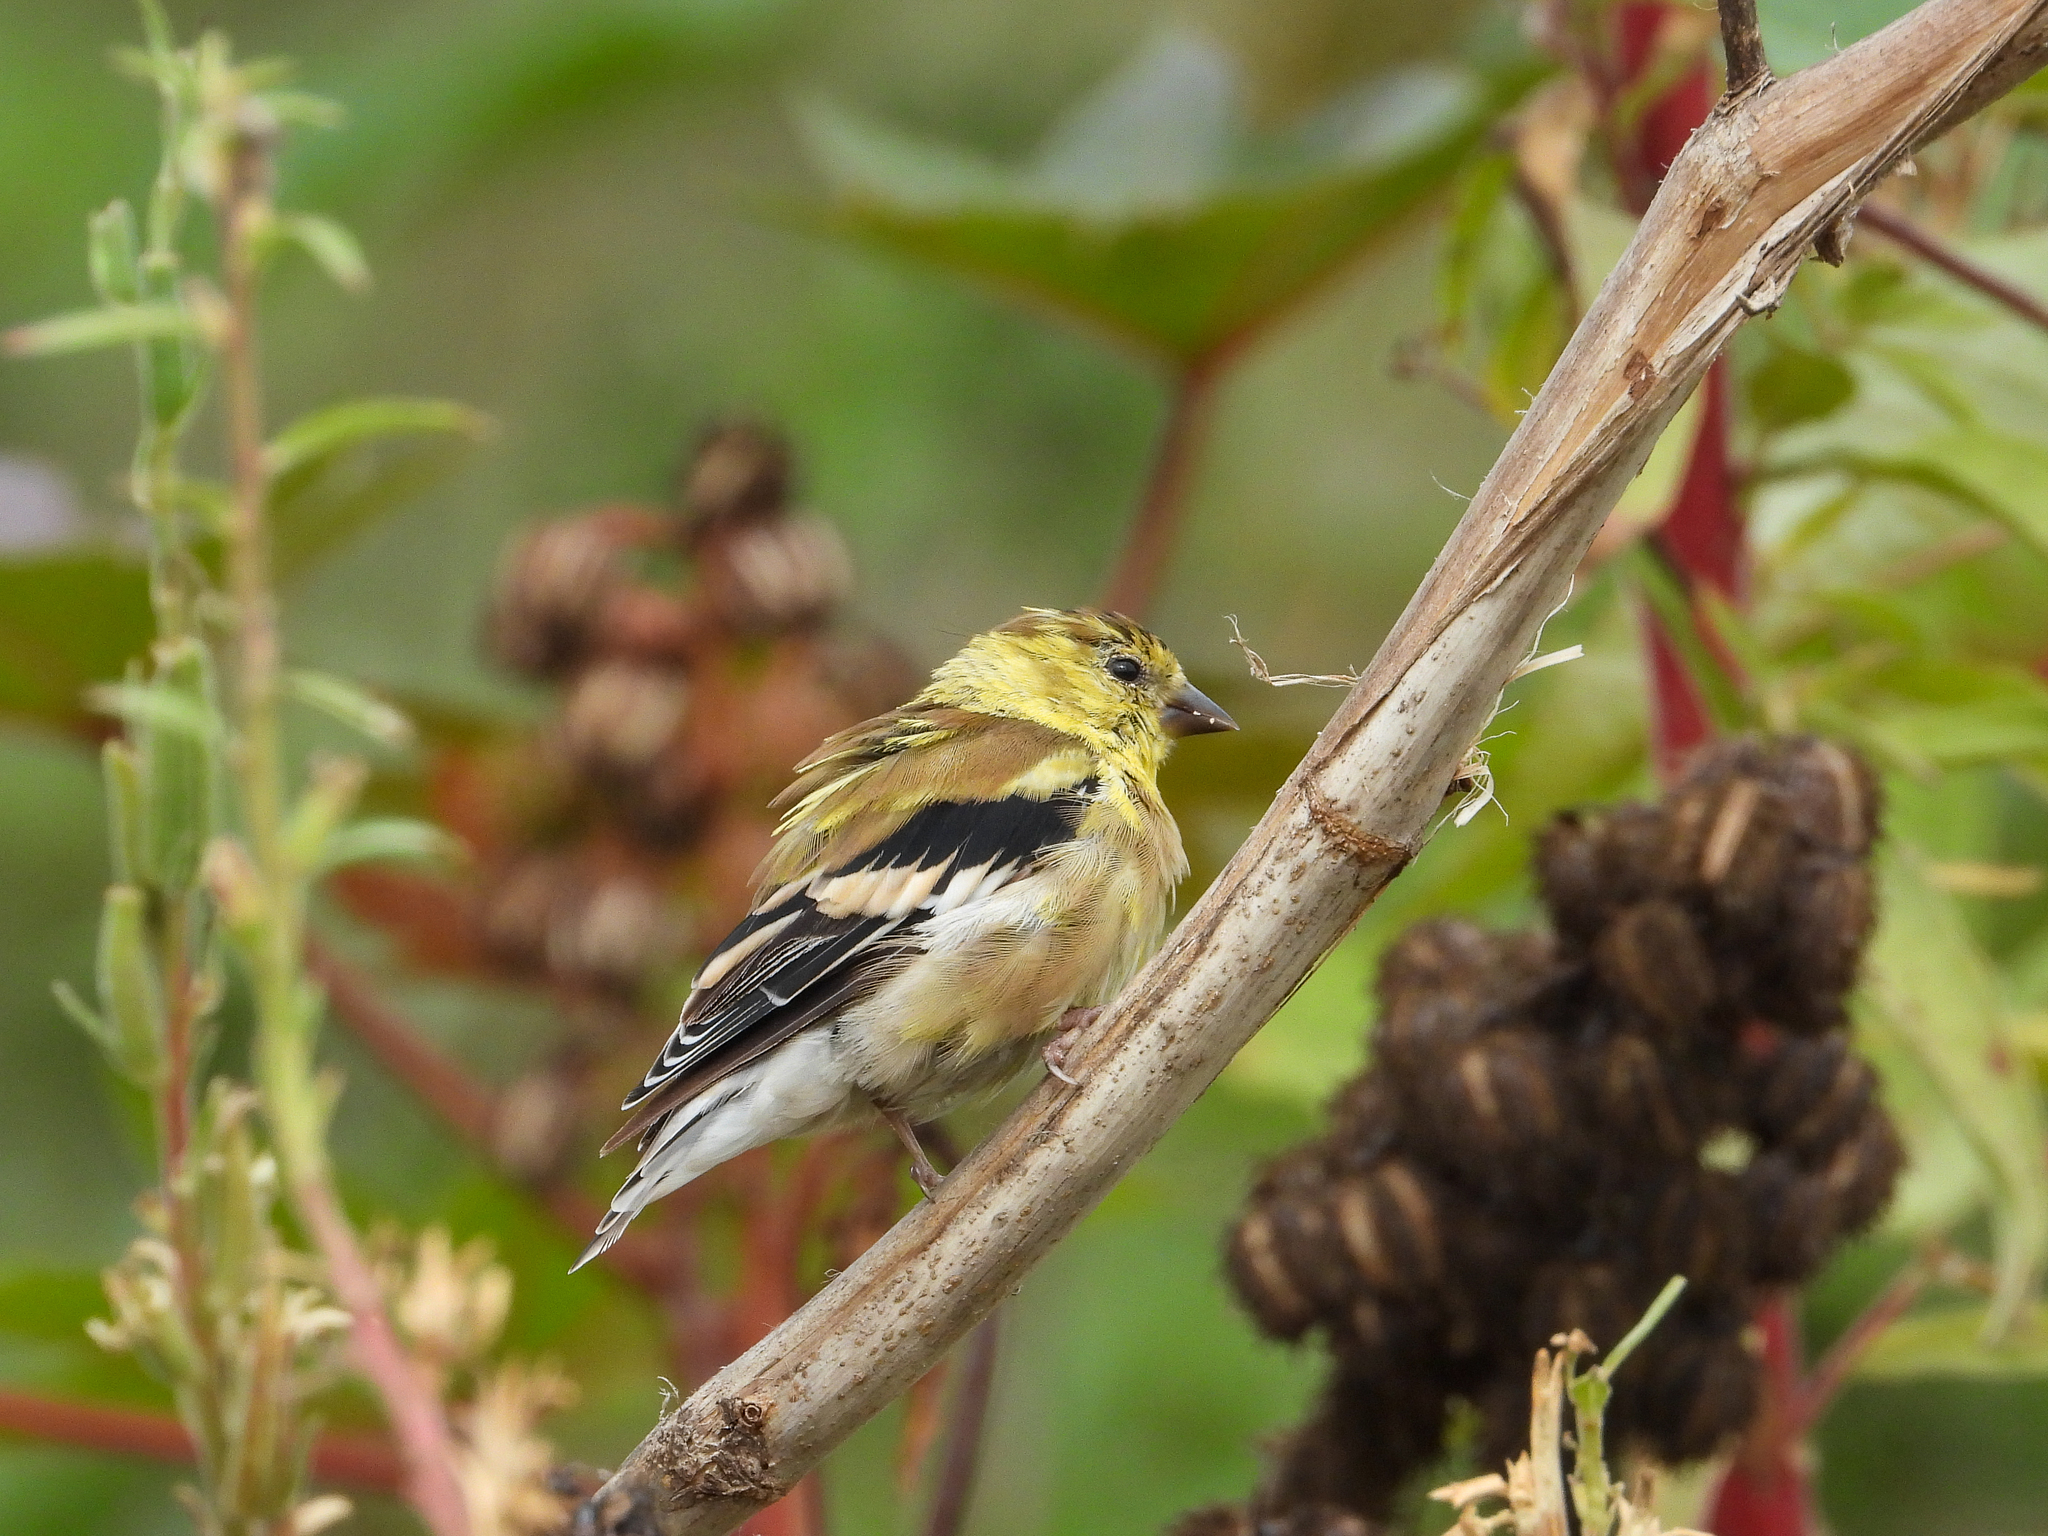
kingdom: Animalia
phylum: Chordata
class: Aves
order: Passeriformes
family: Fringillidae
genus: Spinus
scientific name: Spinus tristis
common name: American goldfinch
